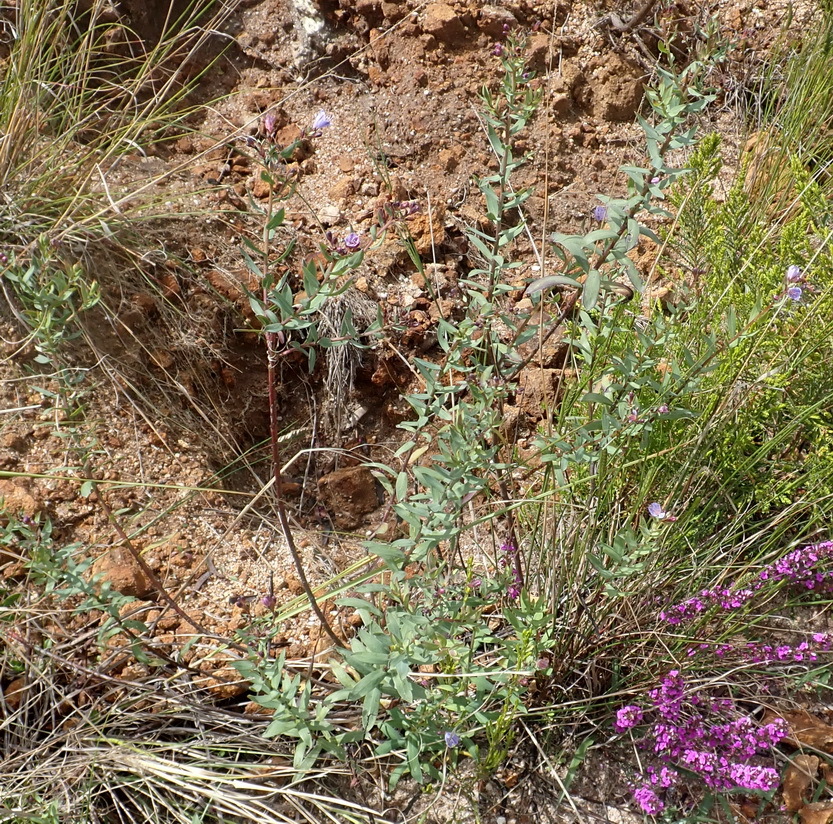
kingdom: Plantae
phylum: Tracheophyta
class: Magnoliopsida
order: Boraginales
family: Boraginaceae
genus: Lobostemon
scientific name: Lobostemon glaucophyllus
